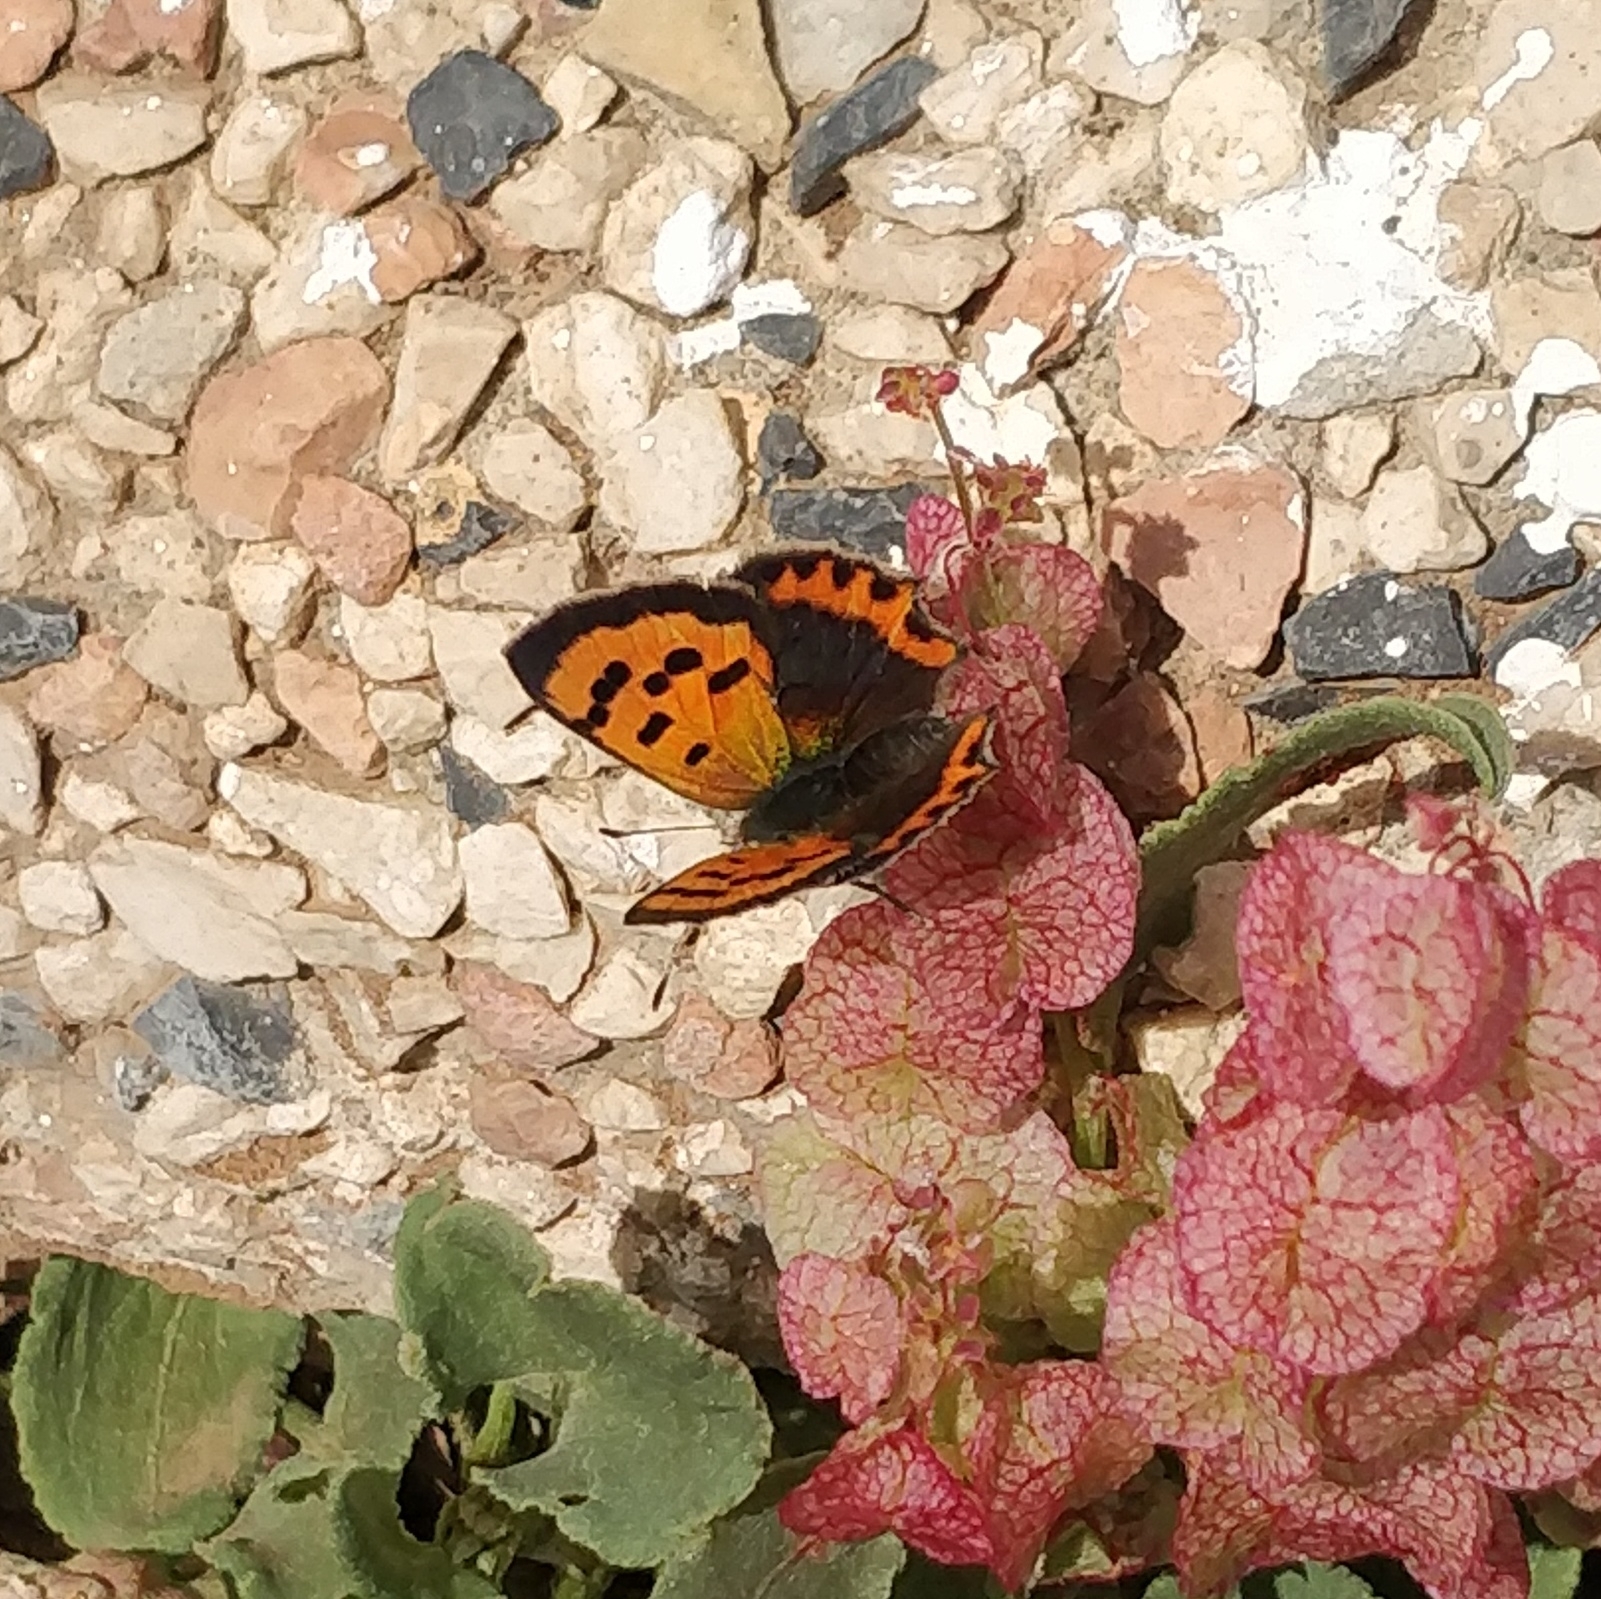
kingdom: Animalia
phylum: Arthropoda
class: Insecta
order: Lepidoptera
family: Lycaenidae
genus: Lycaena
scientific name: Lycaena phlaeas
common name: Small copper
